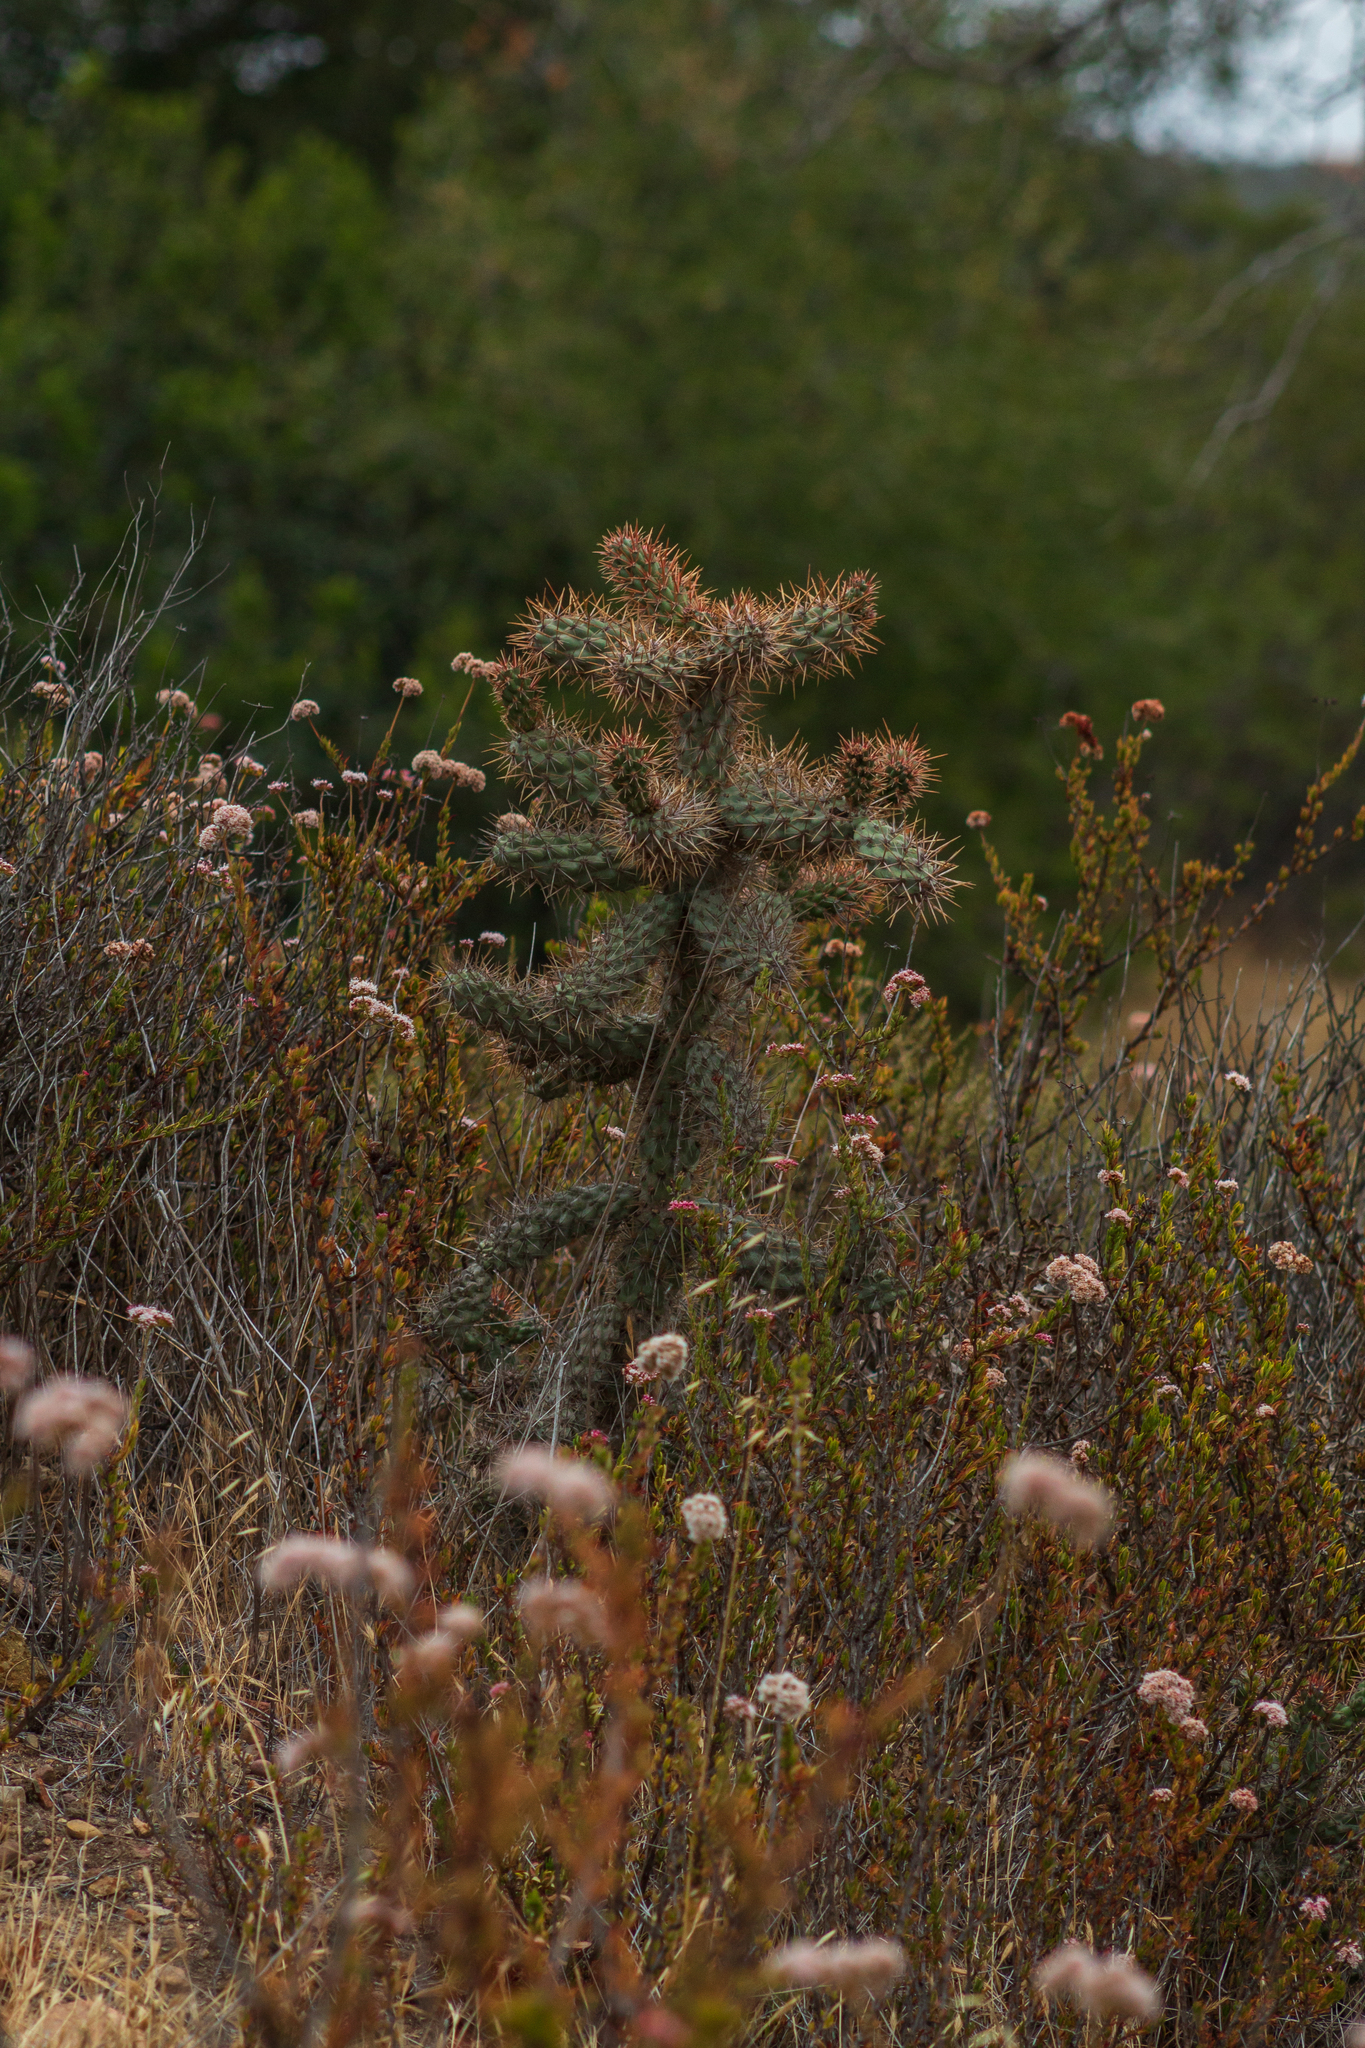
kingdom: Plantae
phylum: Tracheophyta
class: Magnoliopsida
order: Caryophyllales
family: Cactaceae
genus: Cylindropuntia
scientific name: Cylindropuntia prolifera
